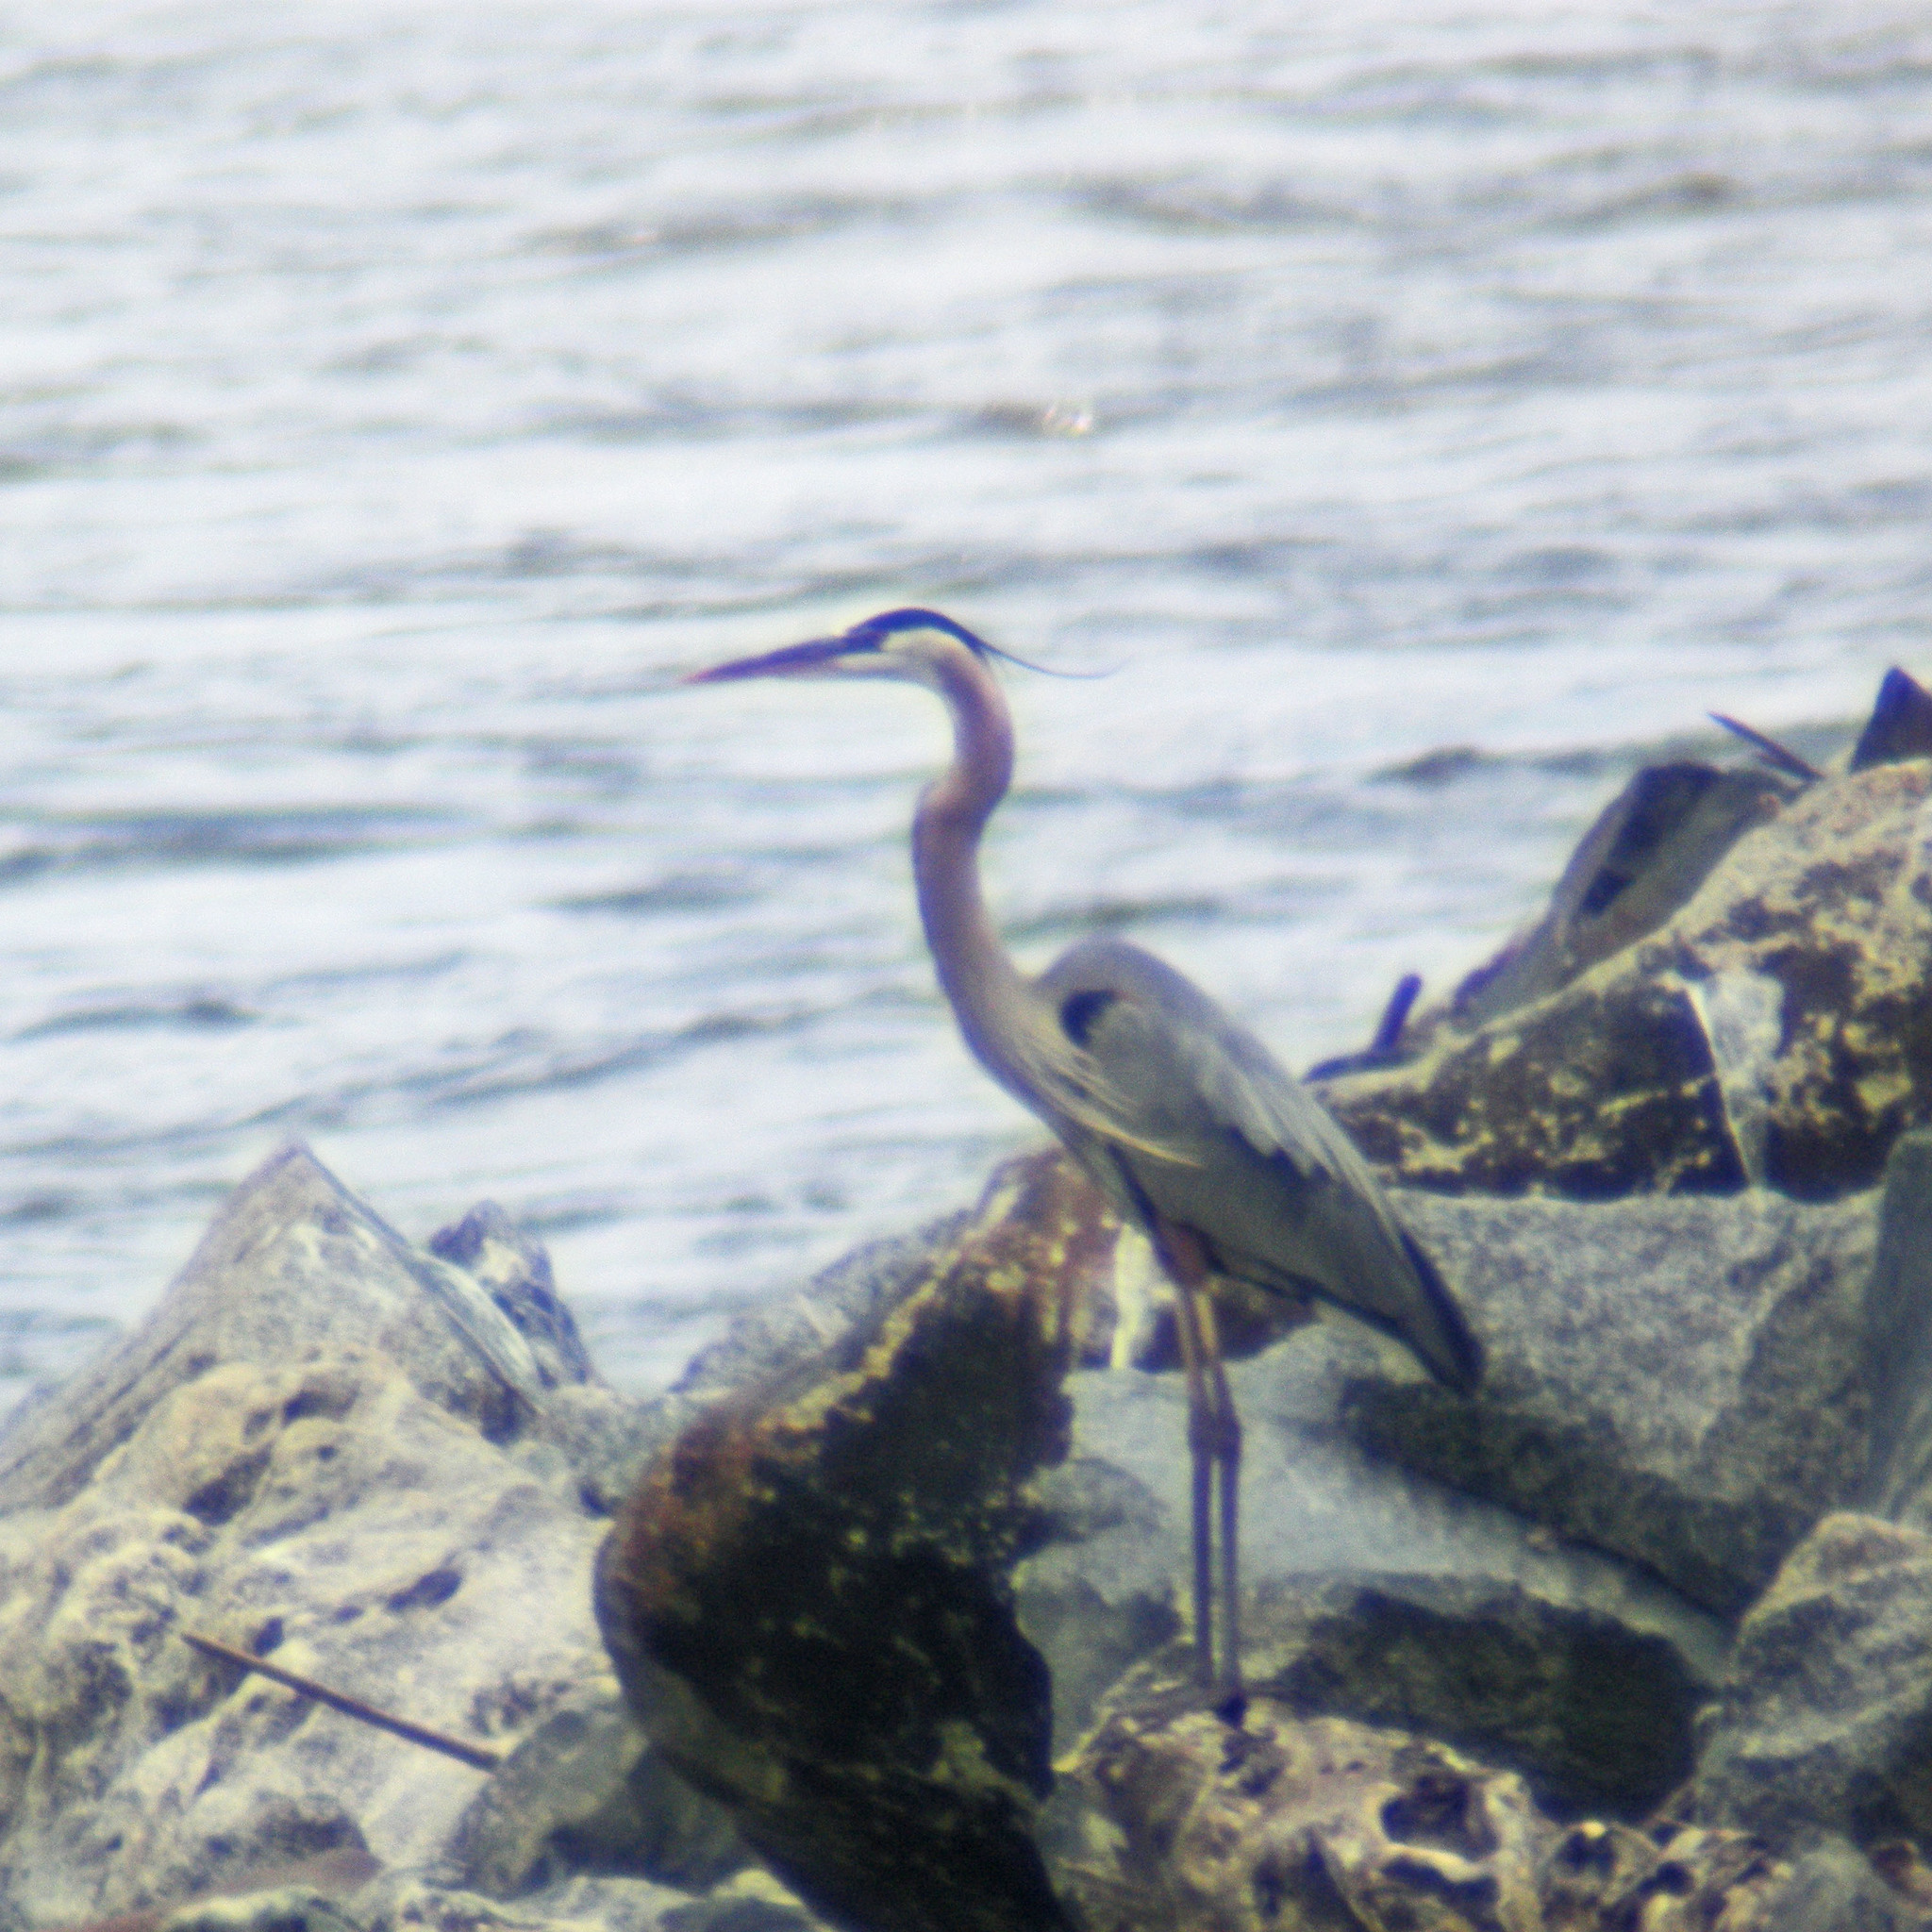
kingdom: Animalia
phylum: Chordata
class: Aves
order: Pelecaniformes
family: Ardeidae
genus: Ardea
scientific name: Ardea herodias
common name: Great blue heron
